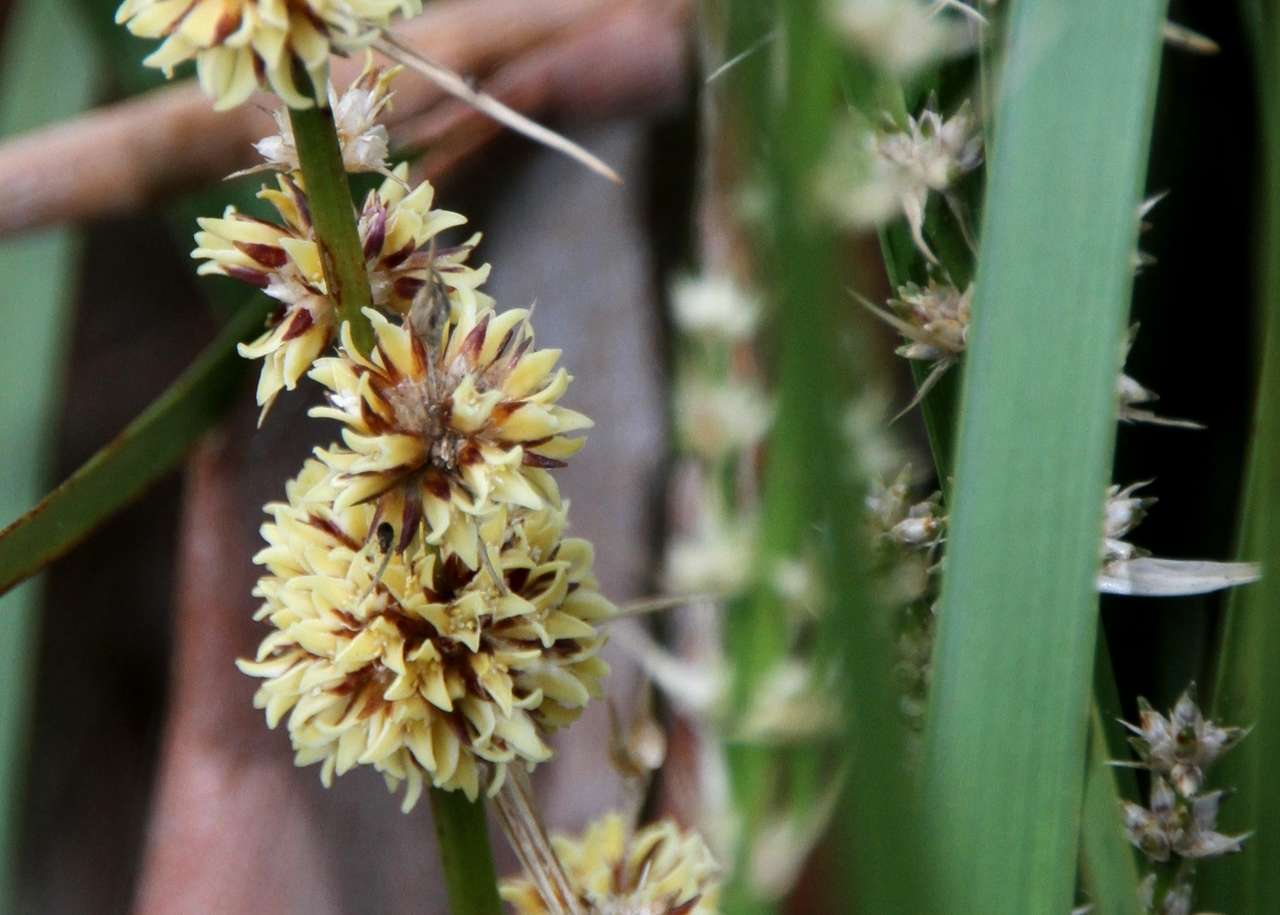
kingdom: Plantae
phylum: Tracheophyta
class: Liliopsida
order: Asparagales
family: Asparagaceae
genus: Lomandra
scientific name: Lomandra longifolia
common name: Longleaf mat-rush
